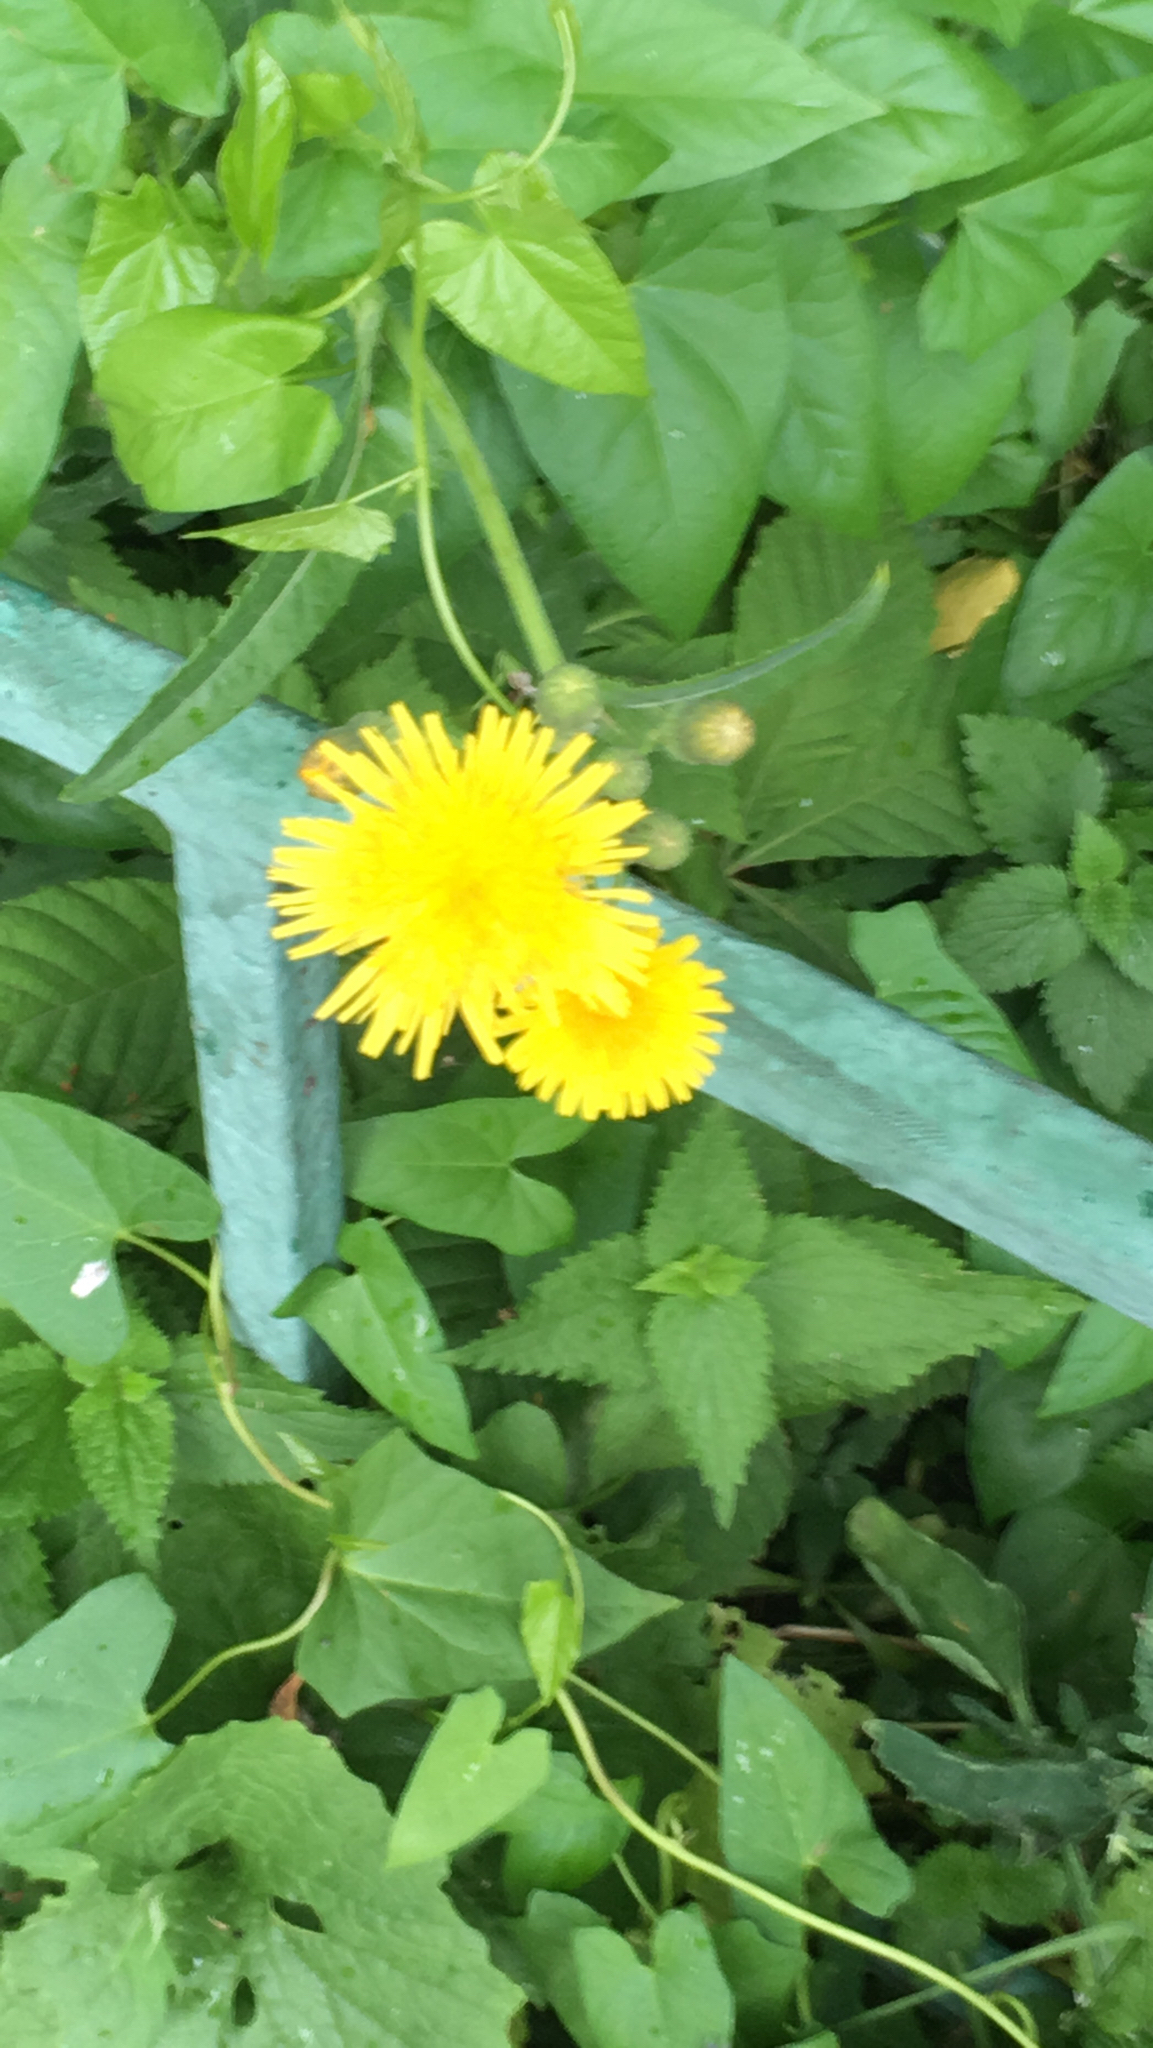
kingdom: Plantae
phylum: Tracheophyta
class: Magnoliopsida
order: Asterales
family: Asteraceae
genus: Sonchus
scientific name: Sonchus arvensis
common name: Perennial sow-thistle
